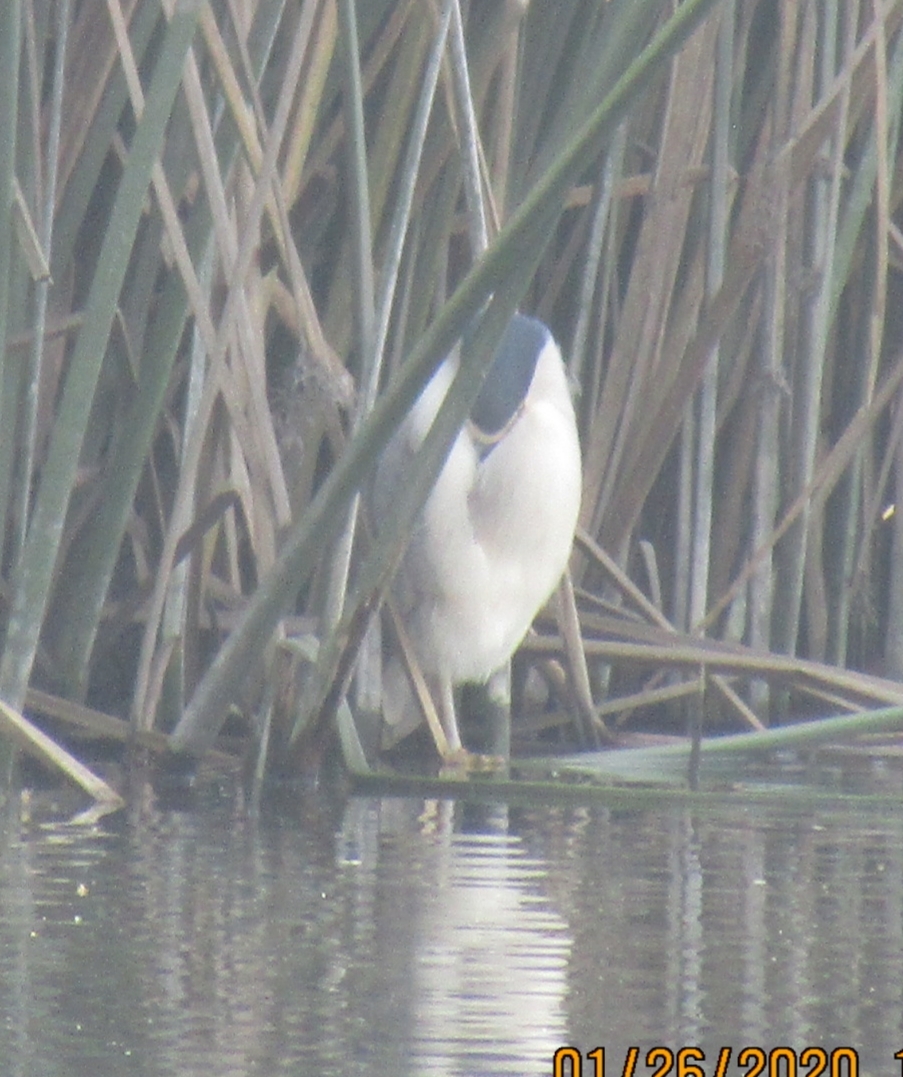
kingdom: Animalia
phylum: Chordata
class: Aves
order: Pelecaniformes
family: Ardeidae
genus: Nycticorax
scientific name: Nycticorax nycticorax
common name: Black-crowned night heron
